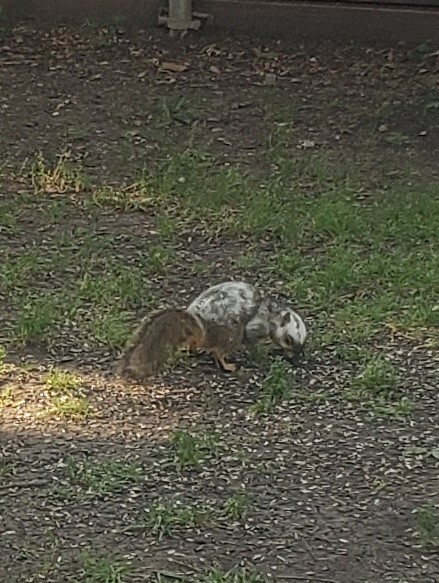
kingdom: Animalia
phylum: Chordata
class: Mammalia
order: Rodentia
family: Sciuridae
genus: Sciurus
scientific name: Sciurus niger
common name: Fox squirrel
